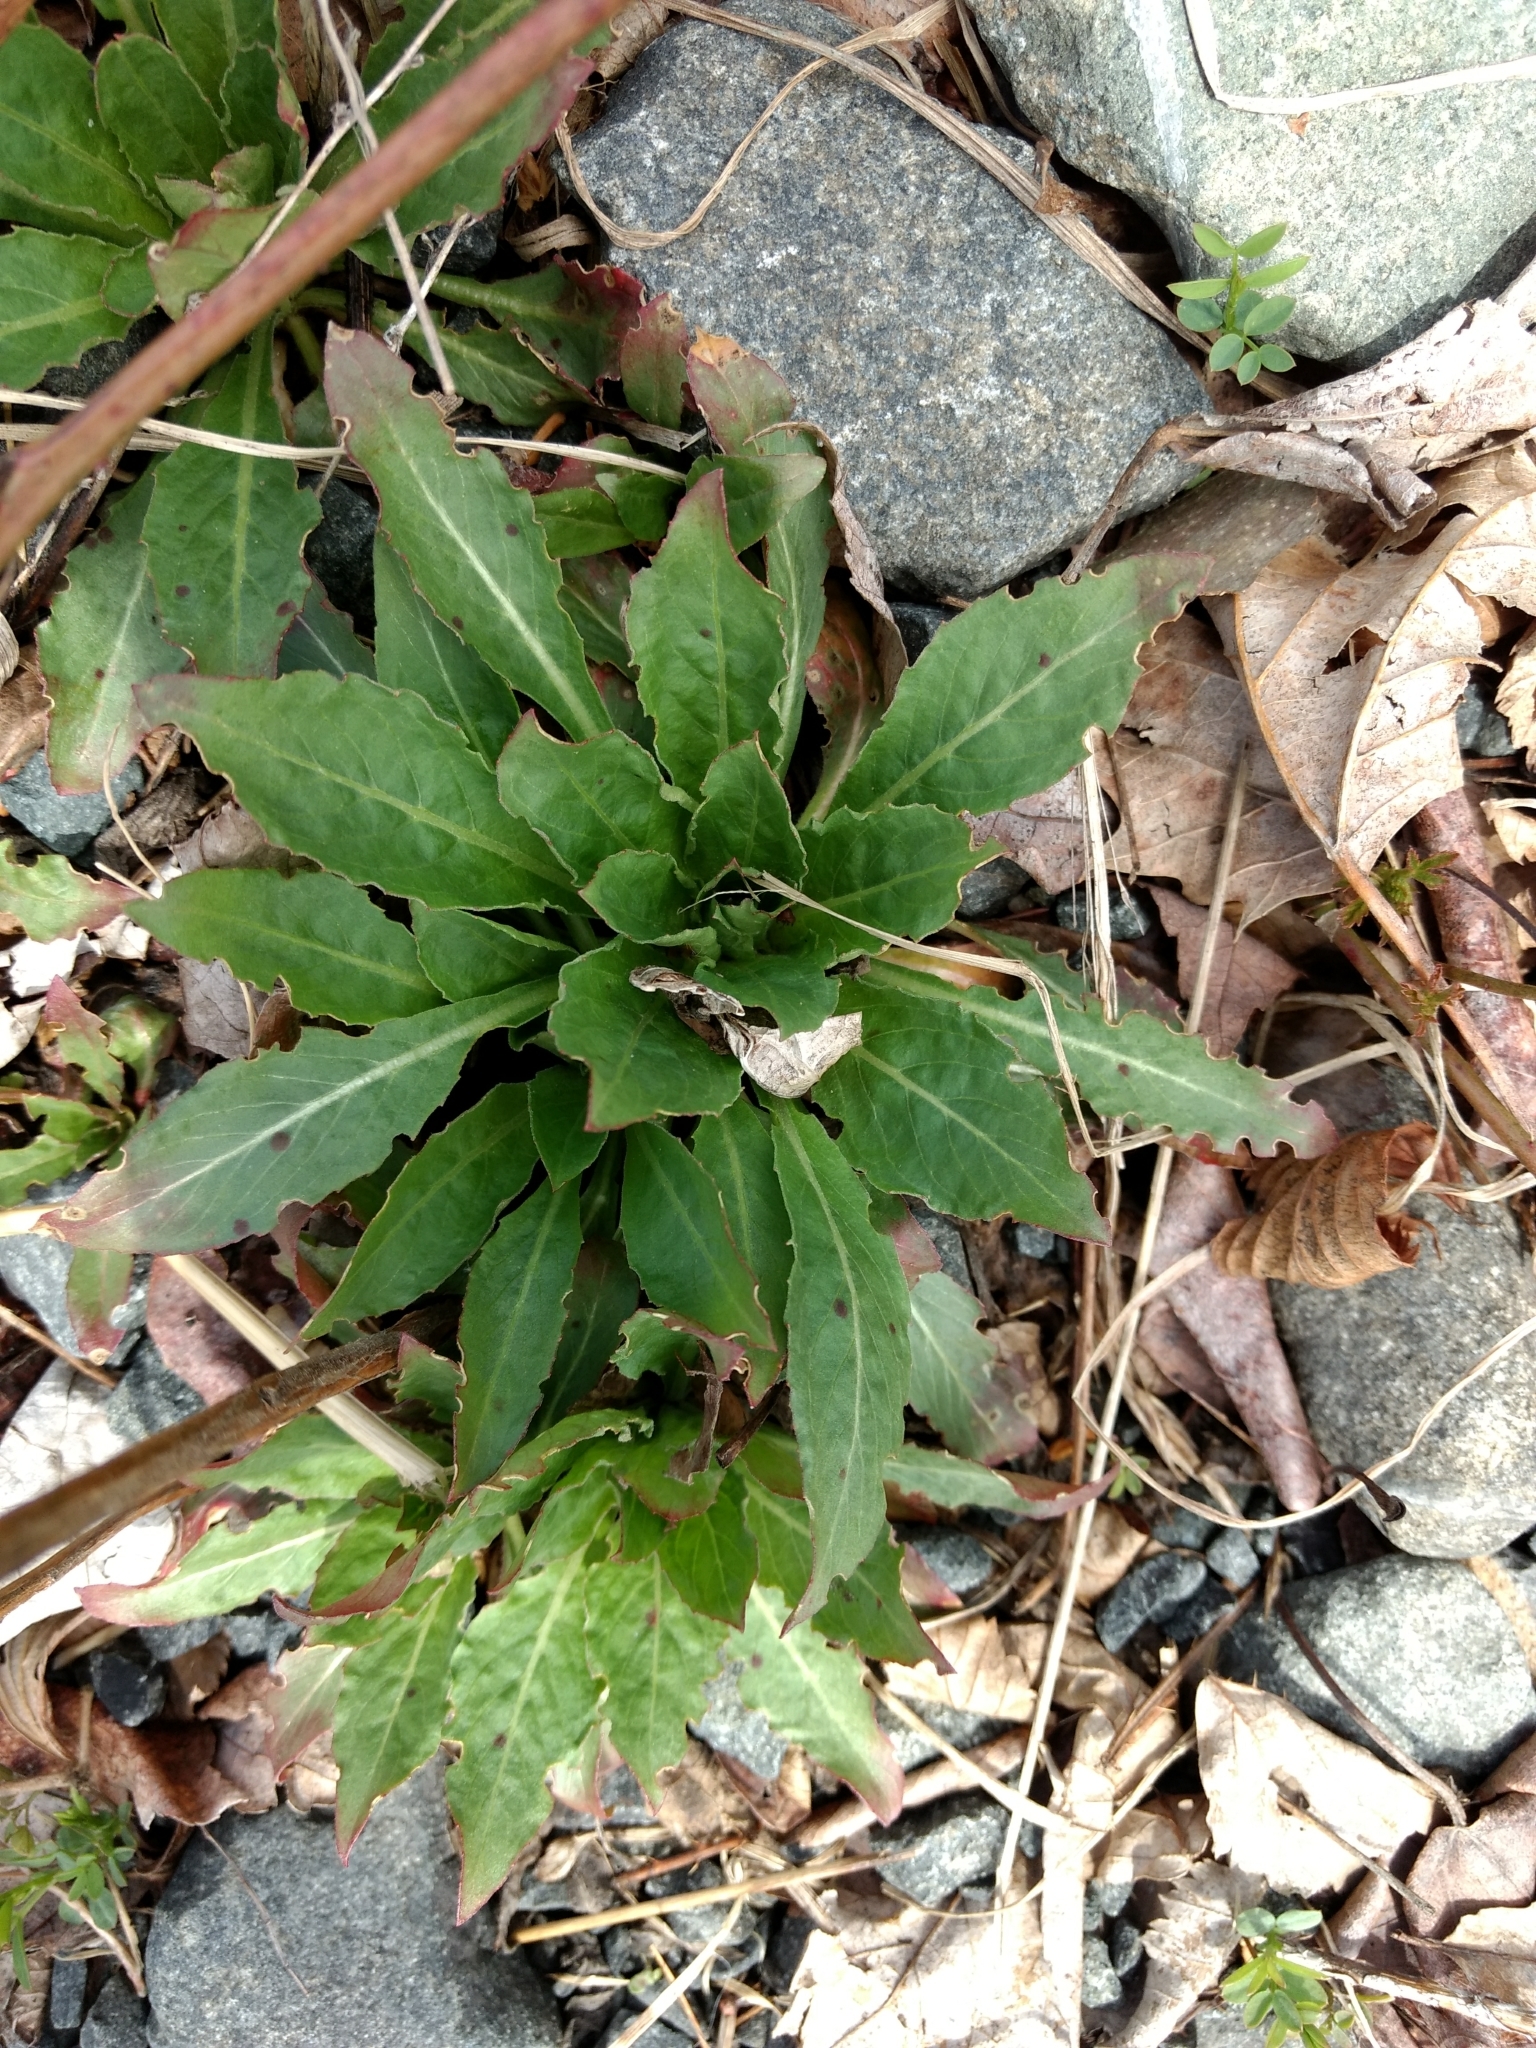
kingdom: Plantae
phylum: Tracheophyta
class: Magnoliopsida
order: Myrtales
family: Onagraceae
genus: Oenothera
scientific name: Oenothera biennis
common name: Common evening-primrose
